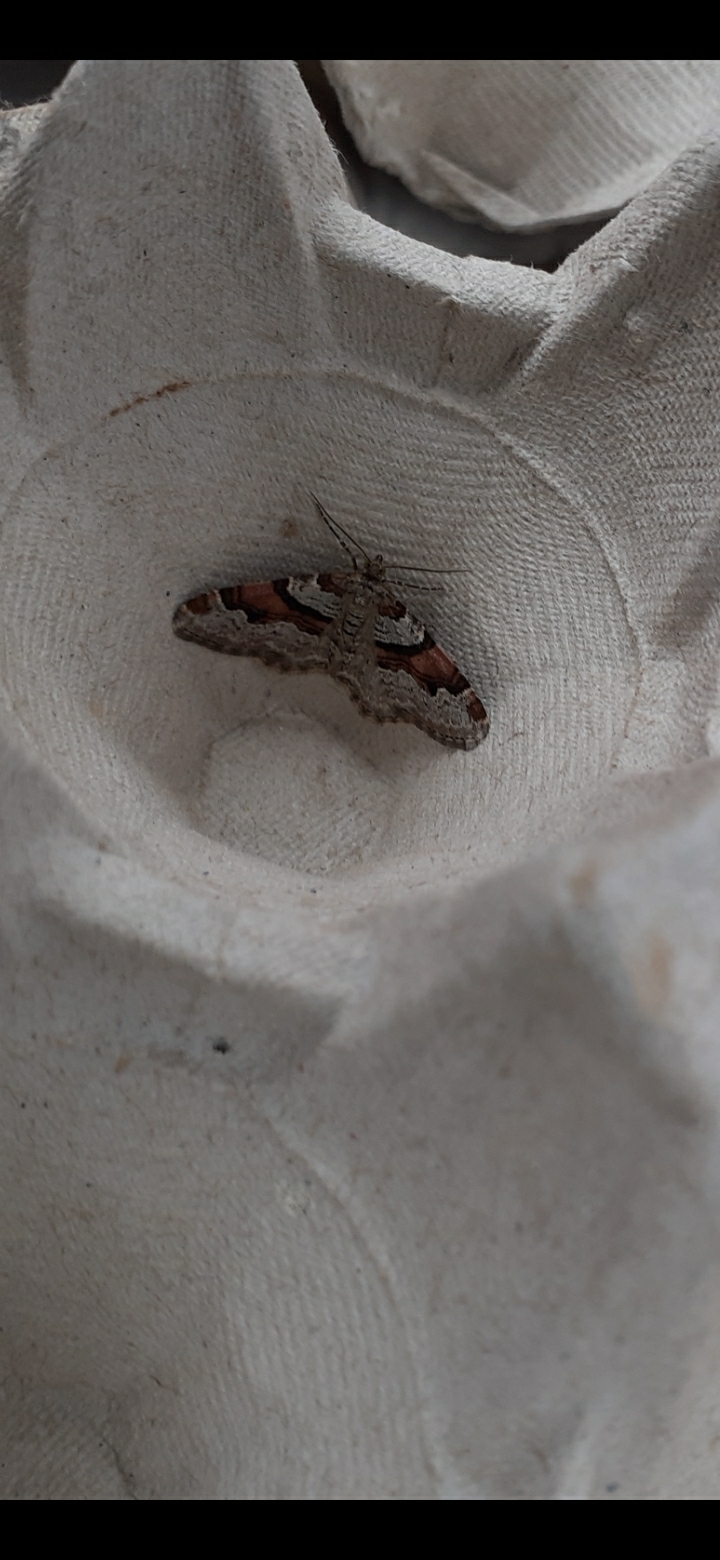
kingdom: Animalia
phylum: Arthropoda
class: Insecta
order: Lepidoptera
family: Geometridae
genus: Xanthorhoe
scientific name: Xanthorhoe designata
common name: Flame carpet
